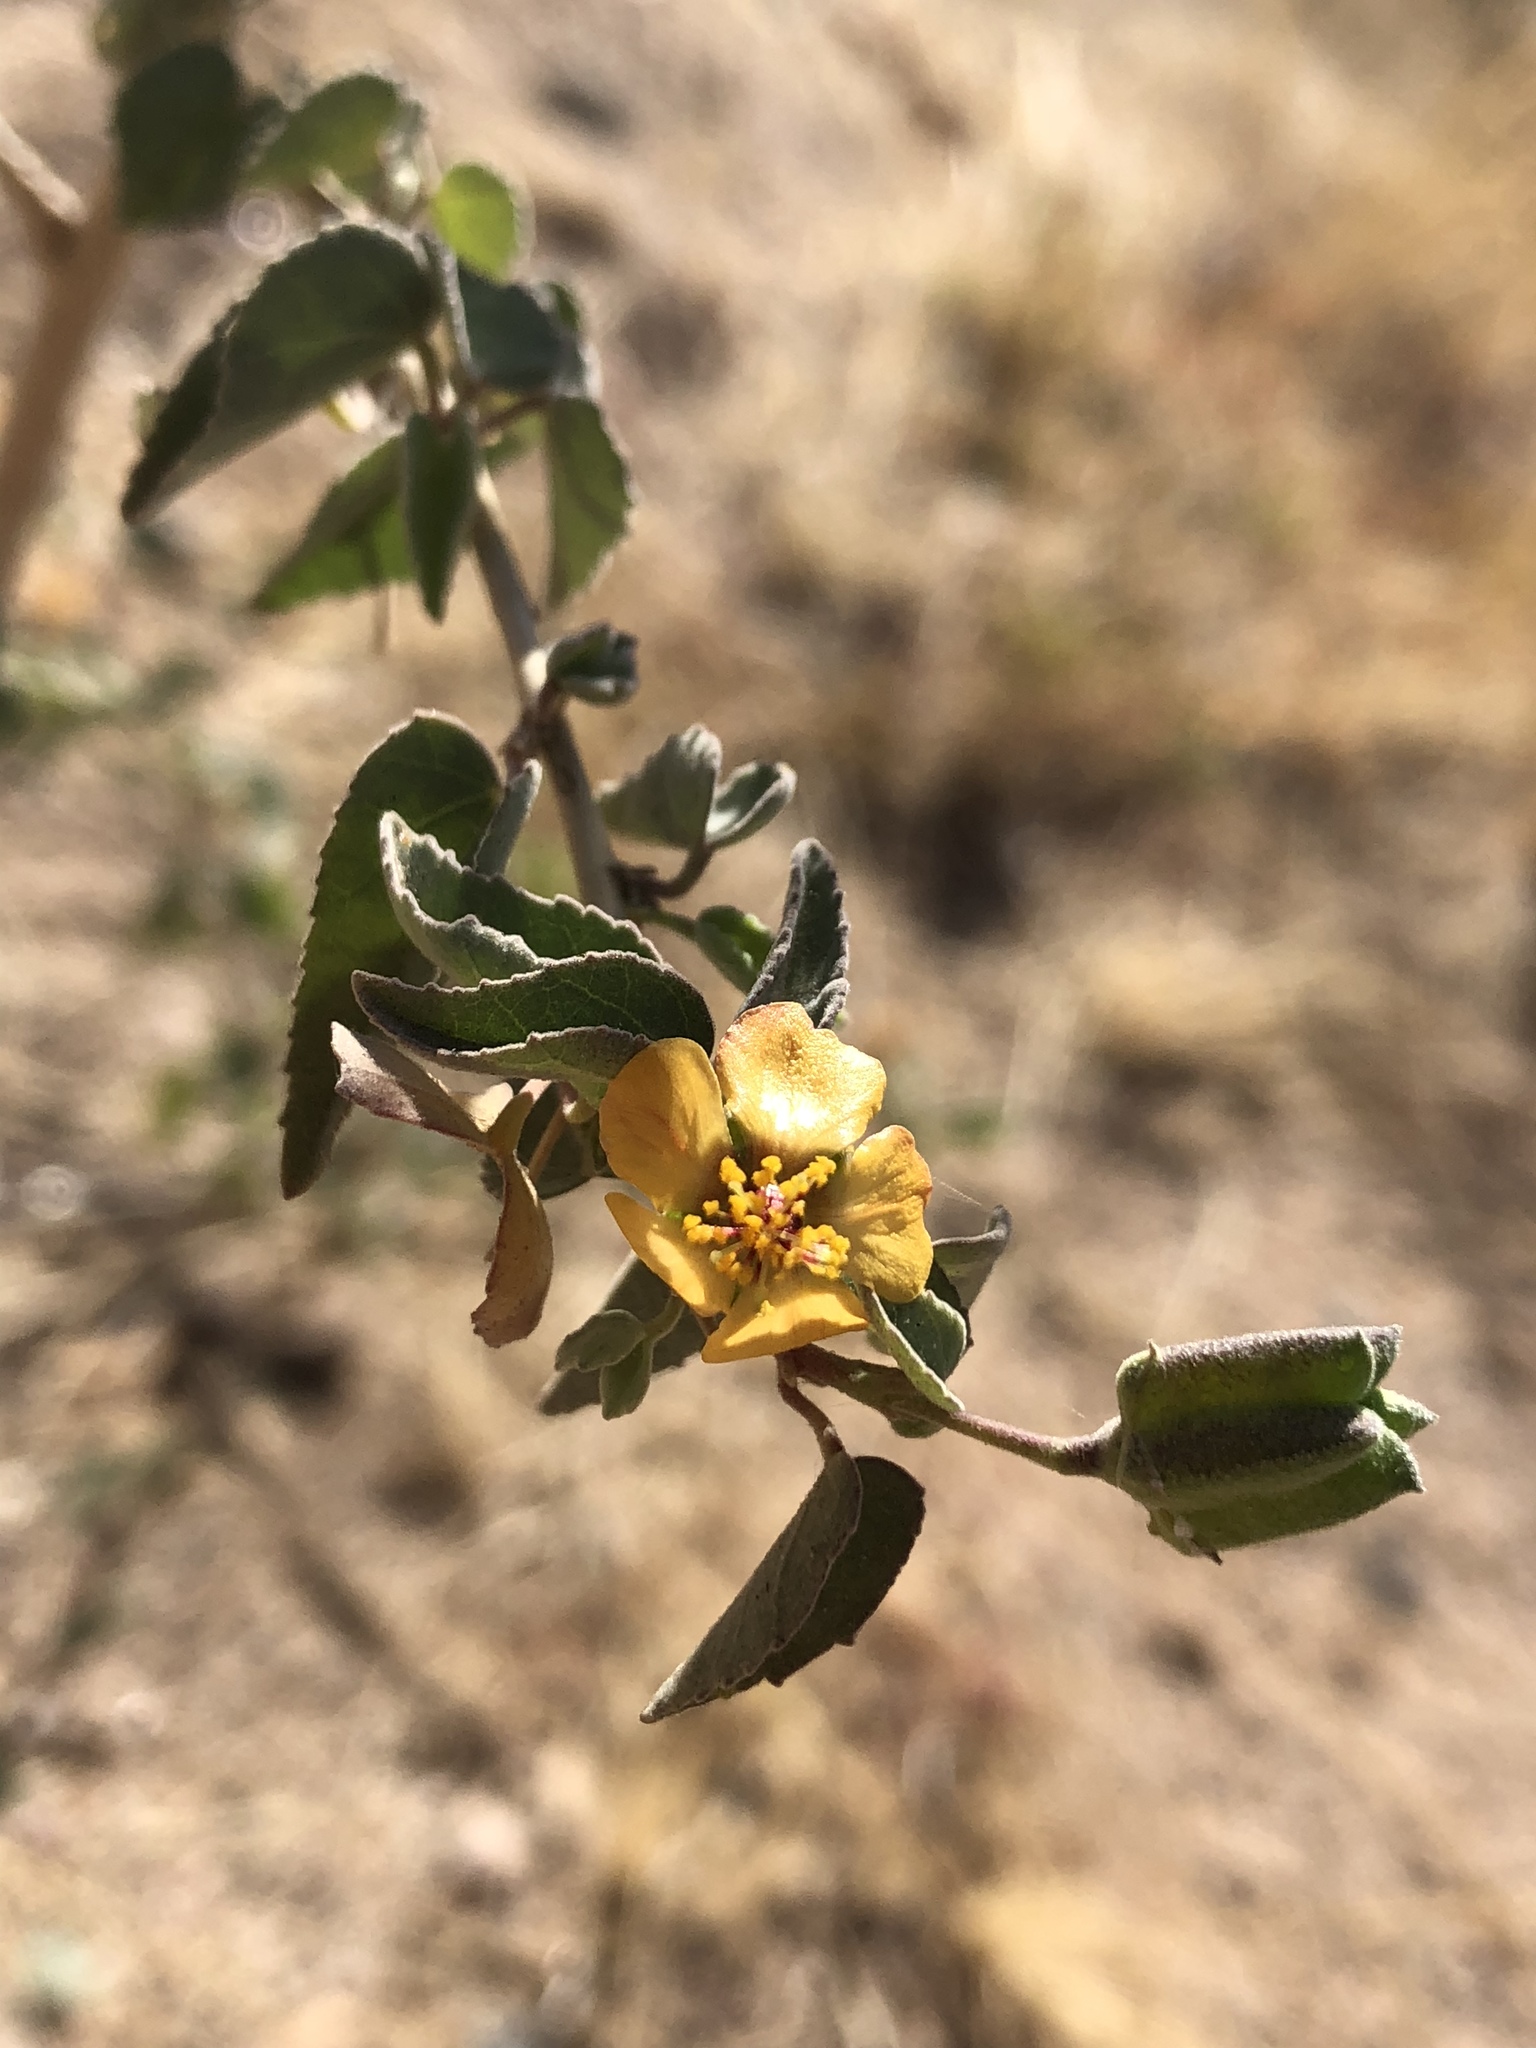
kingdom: Plantae
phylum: Tracheophyta
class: Magnoliopsida
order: Malvales
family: Malvaceae
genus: Abutilon
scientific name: Abutilon incanum
